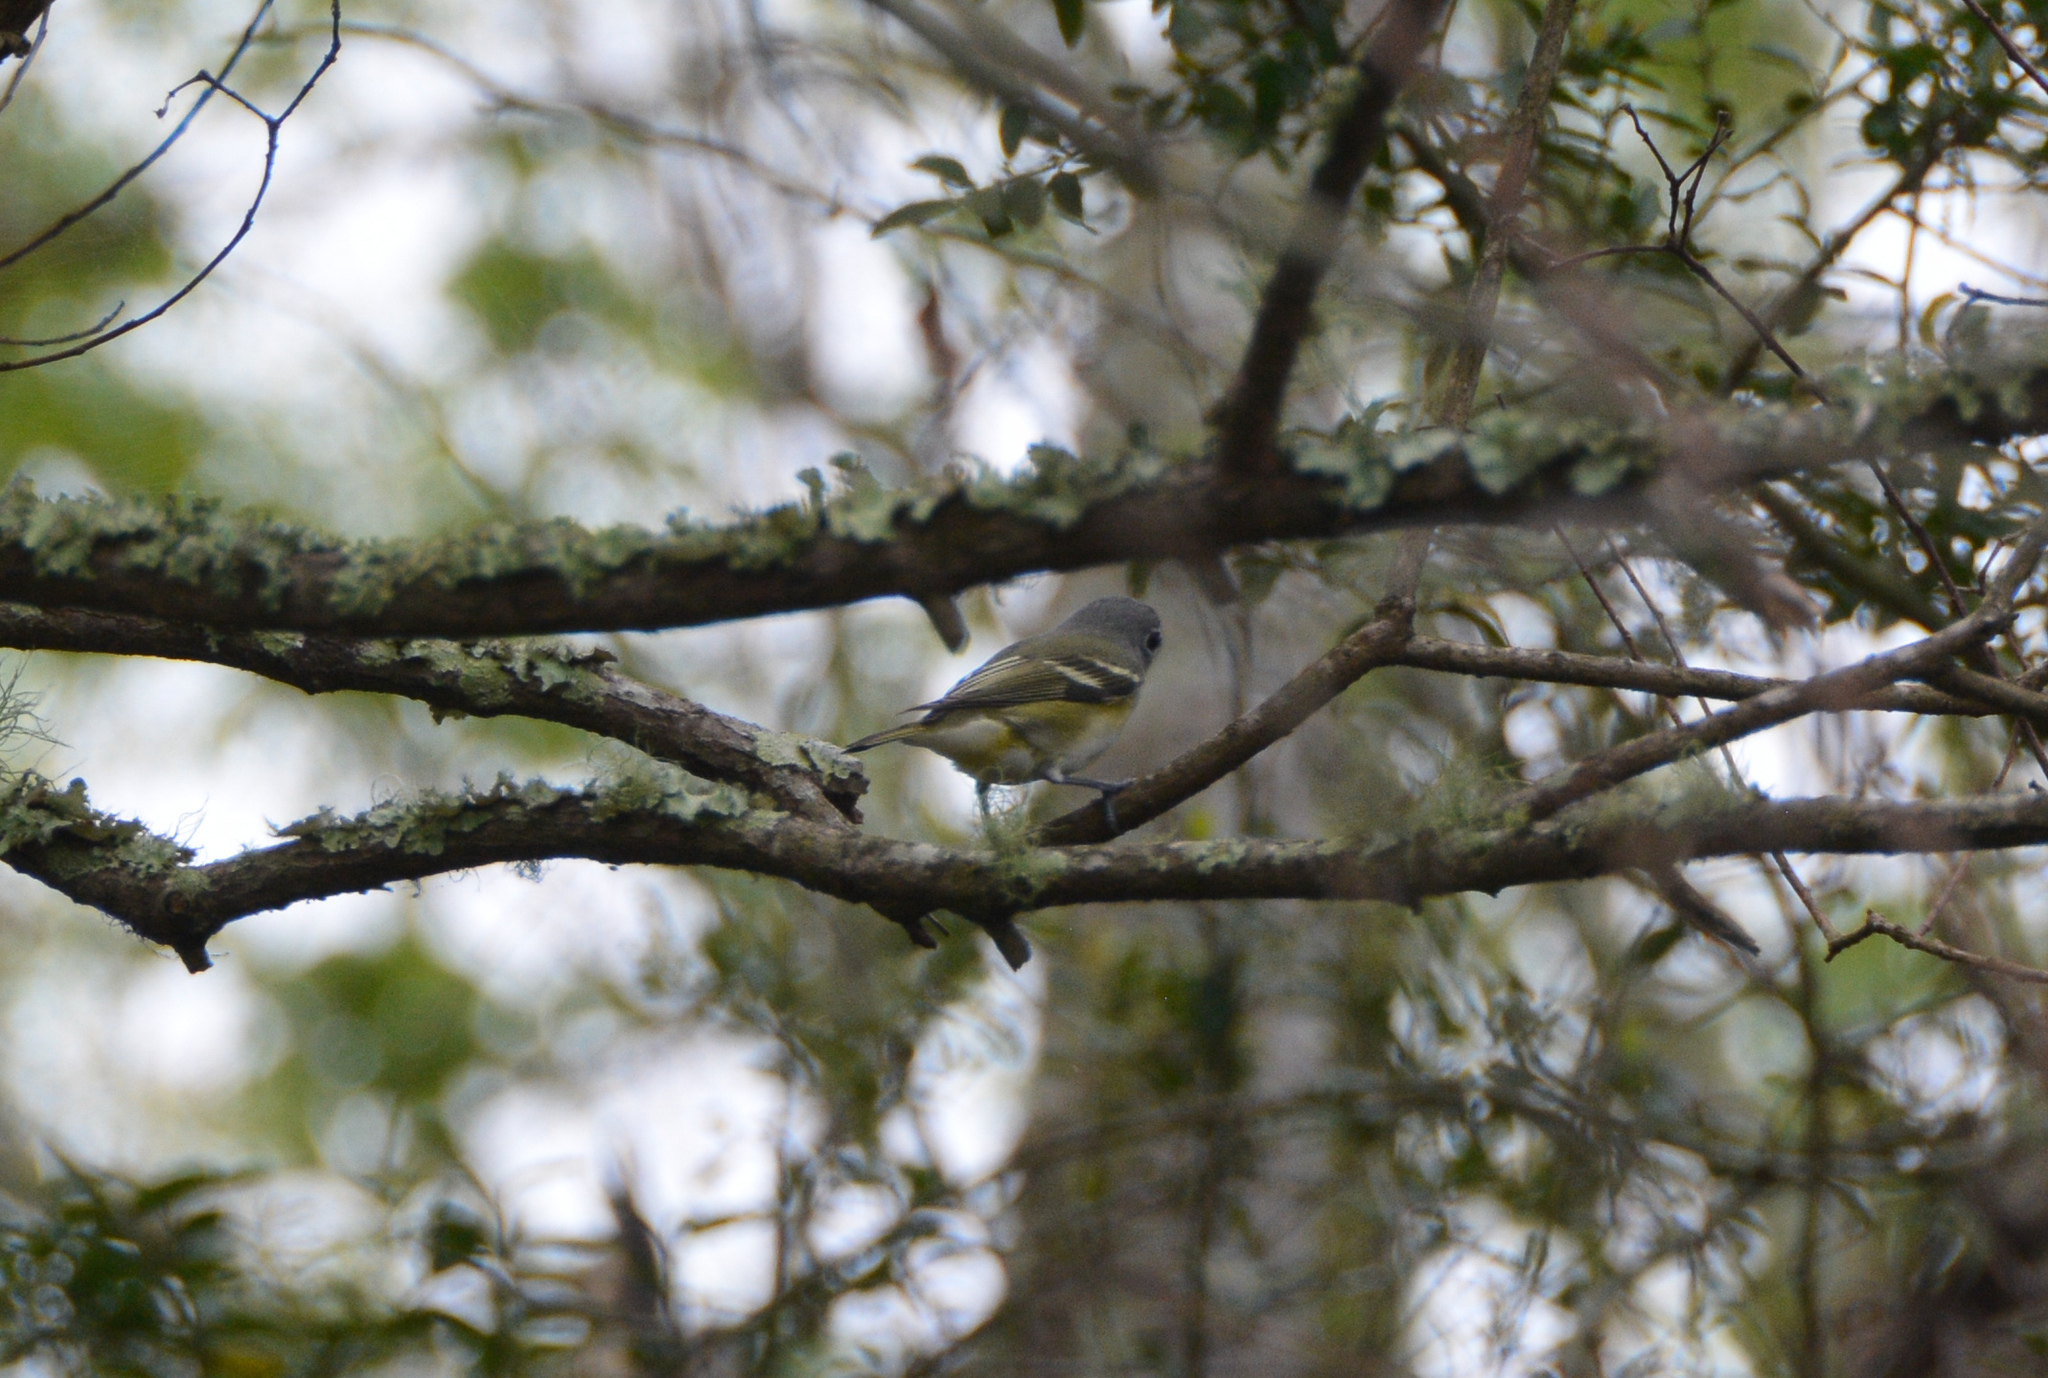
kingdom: Animalia
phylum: Chordata
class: Aves
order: Passeriformes
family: Vireonidae
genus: Vireo
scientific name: Vireo solitarius
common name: Blue-headed vireo
